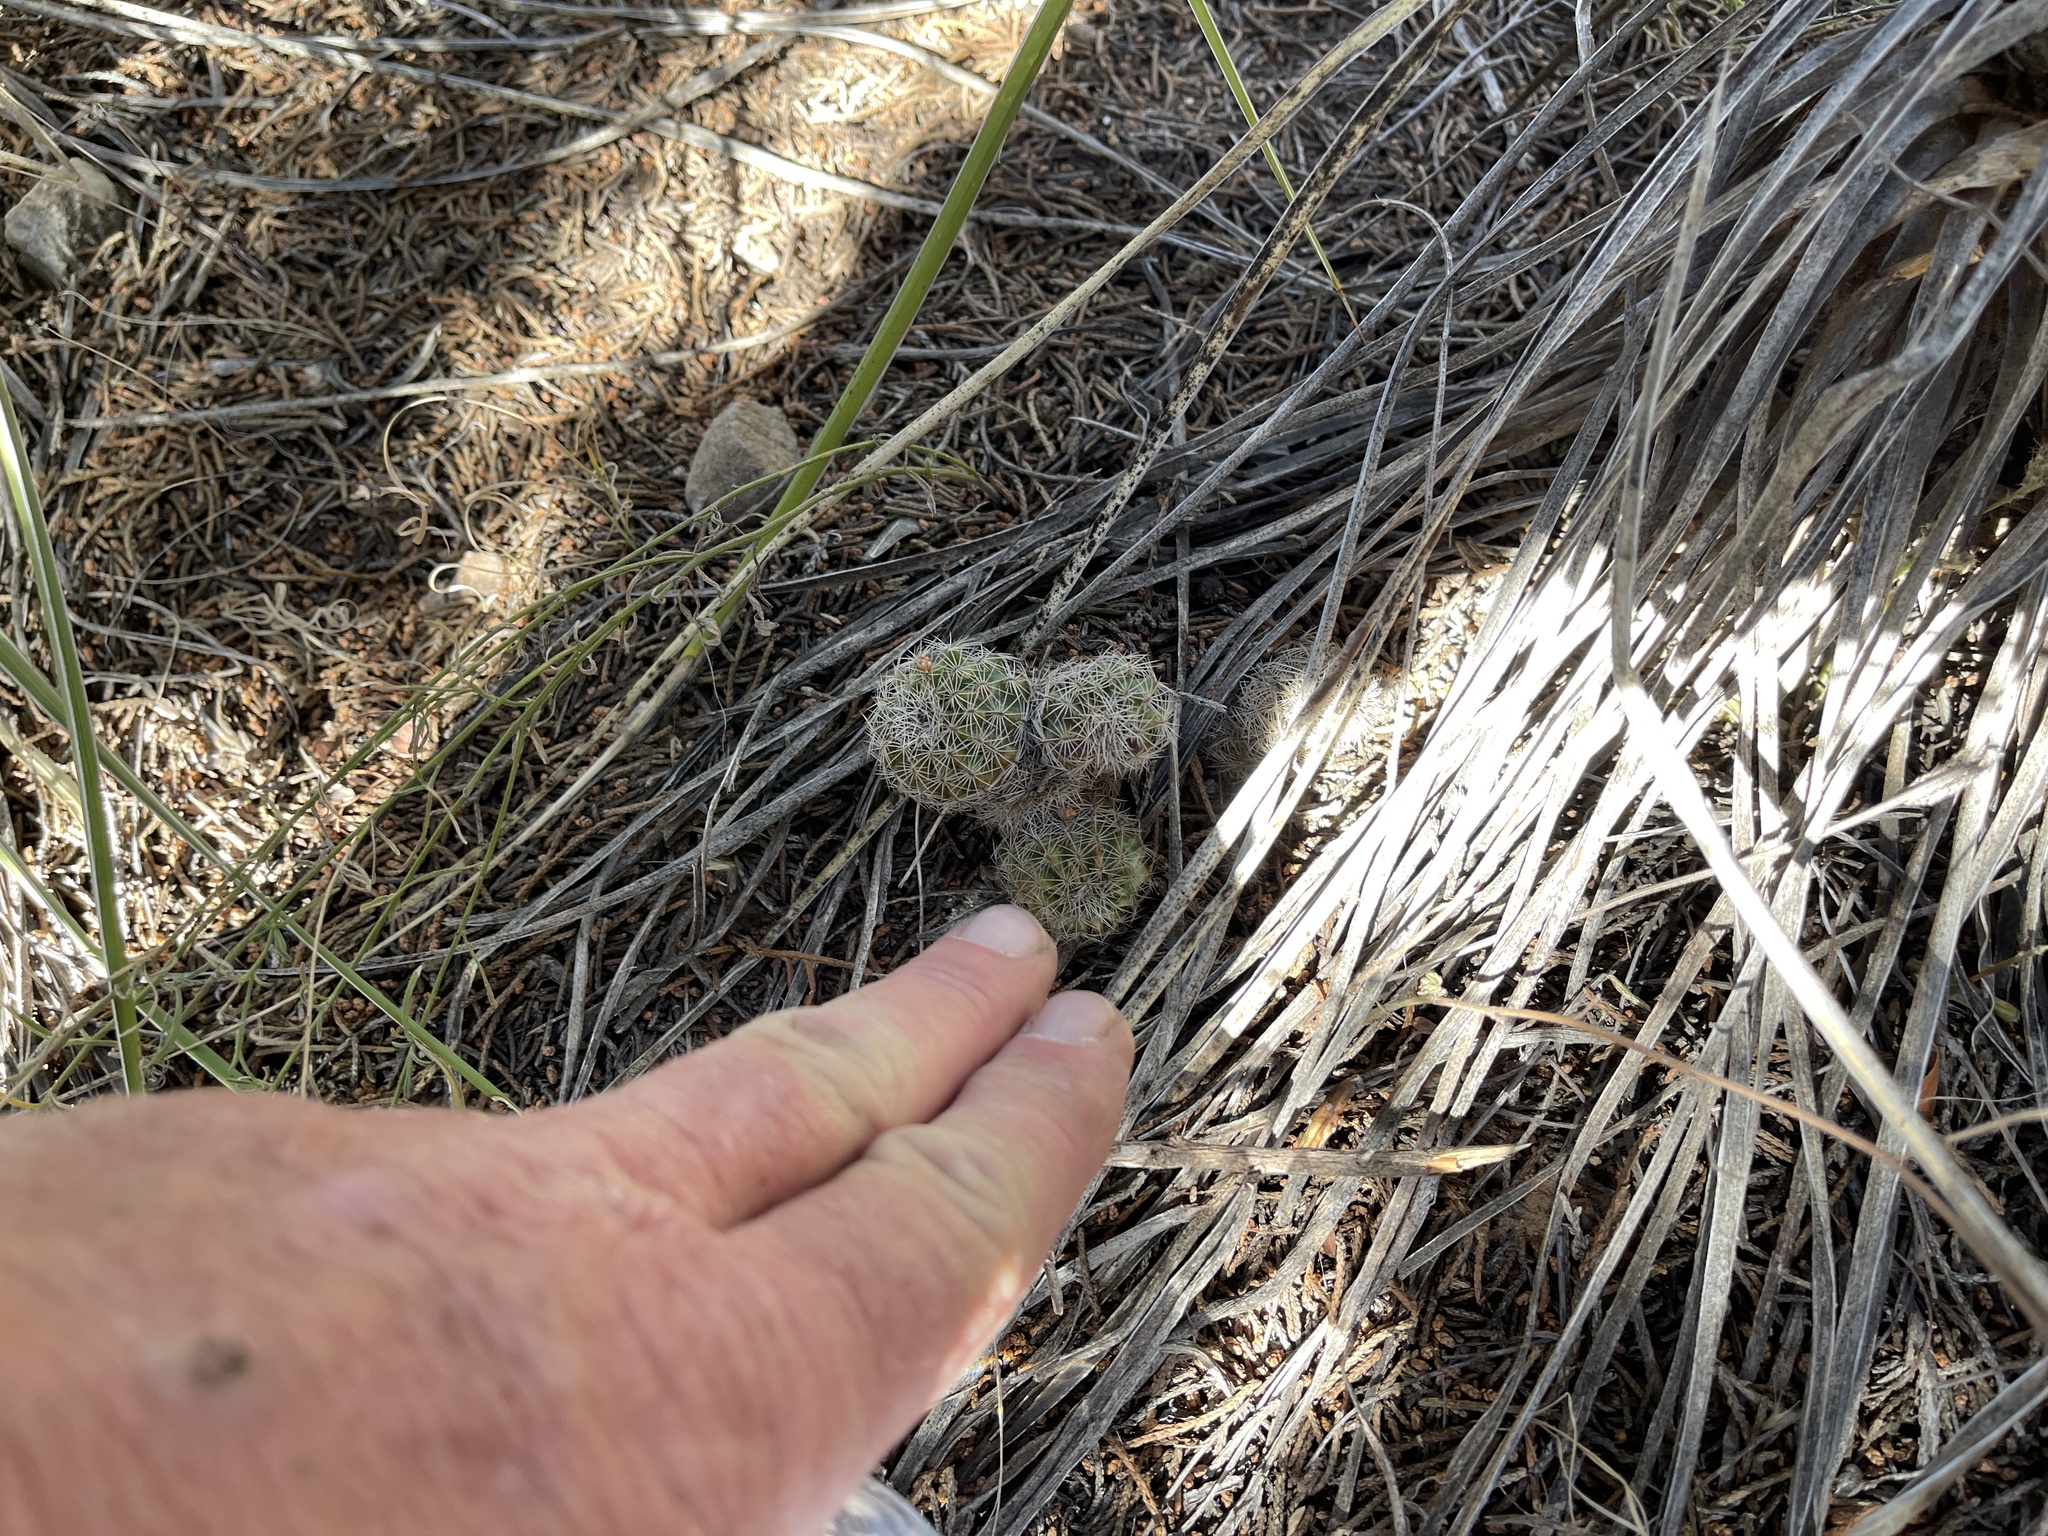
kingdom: Plantae
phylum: Tracheophyta
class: Magnoliopsida
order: Caryophyllales
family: Cactaceae
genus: Echinocereus
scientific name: Echinocereus reichenbachii
